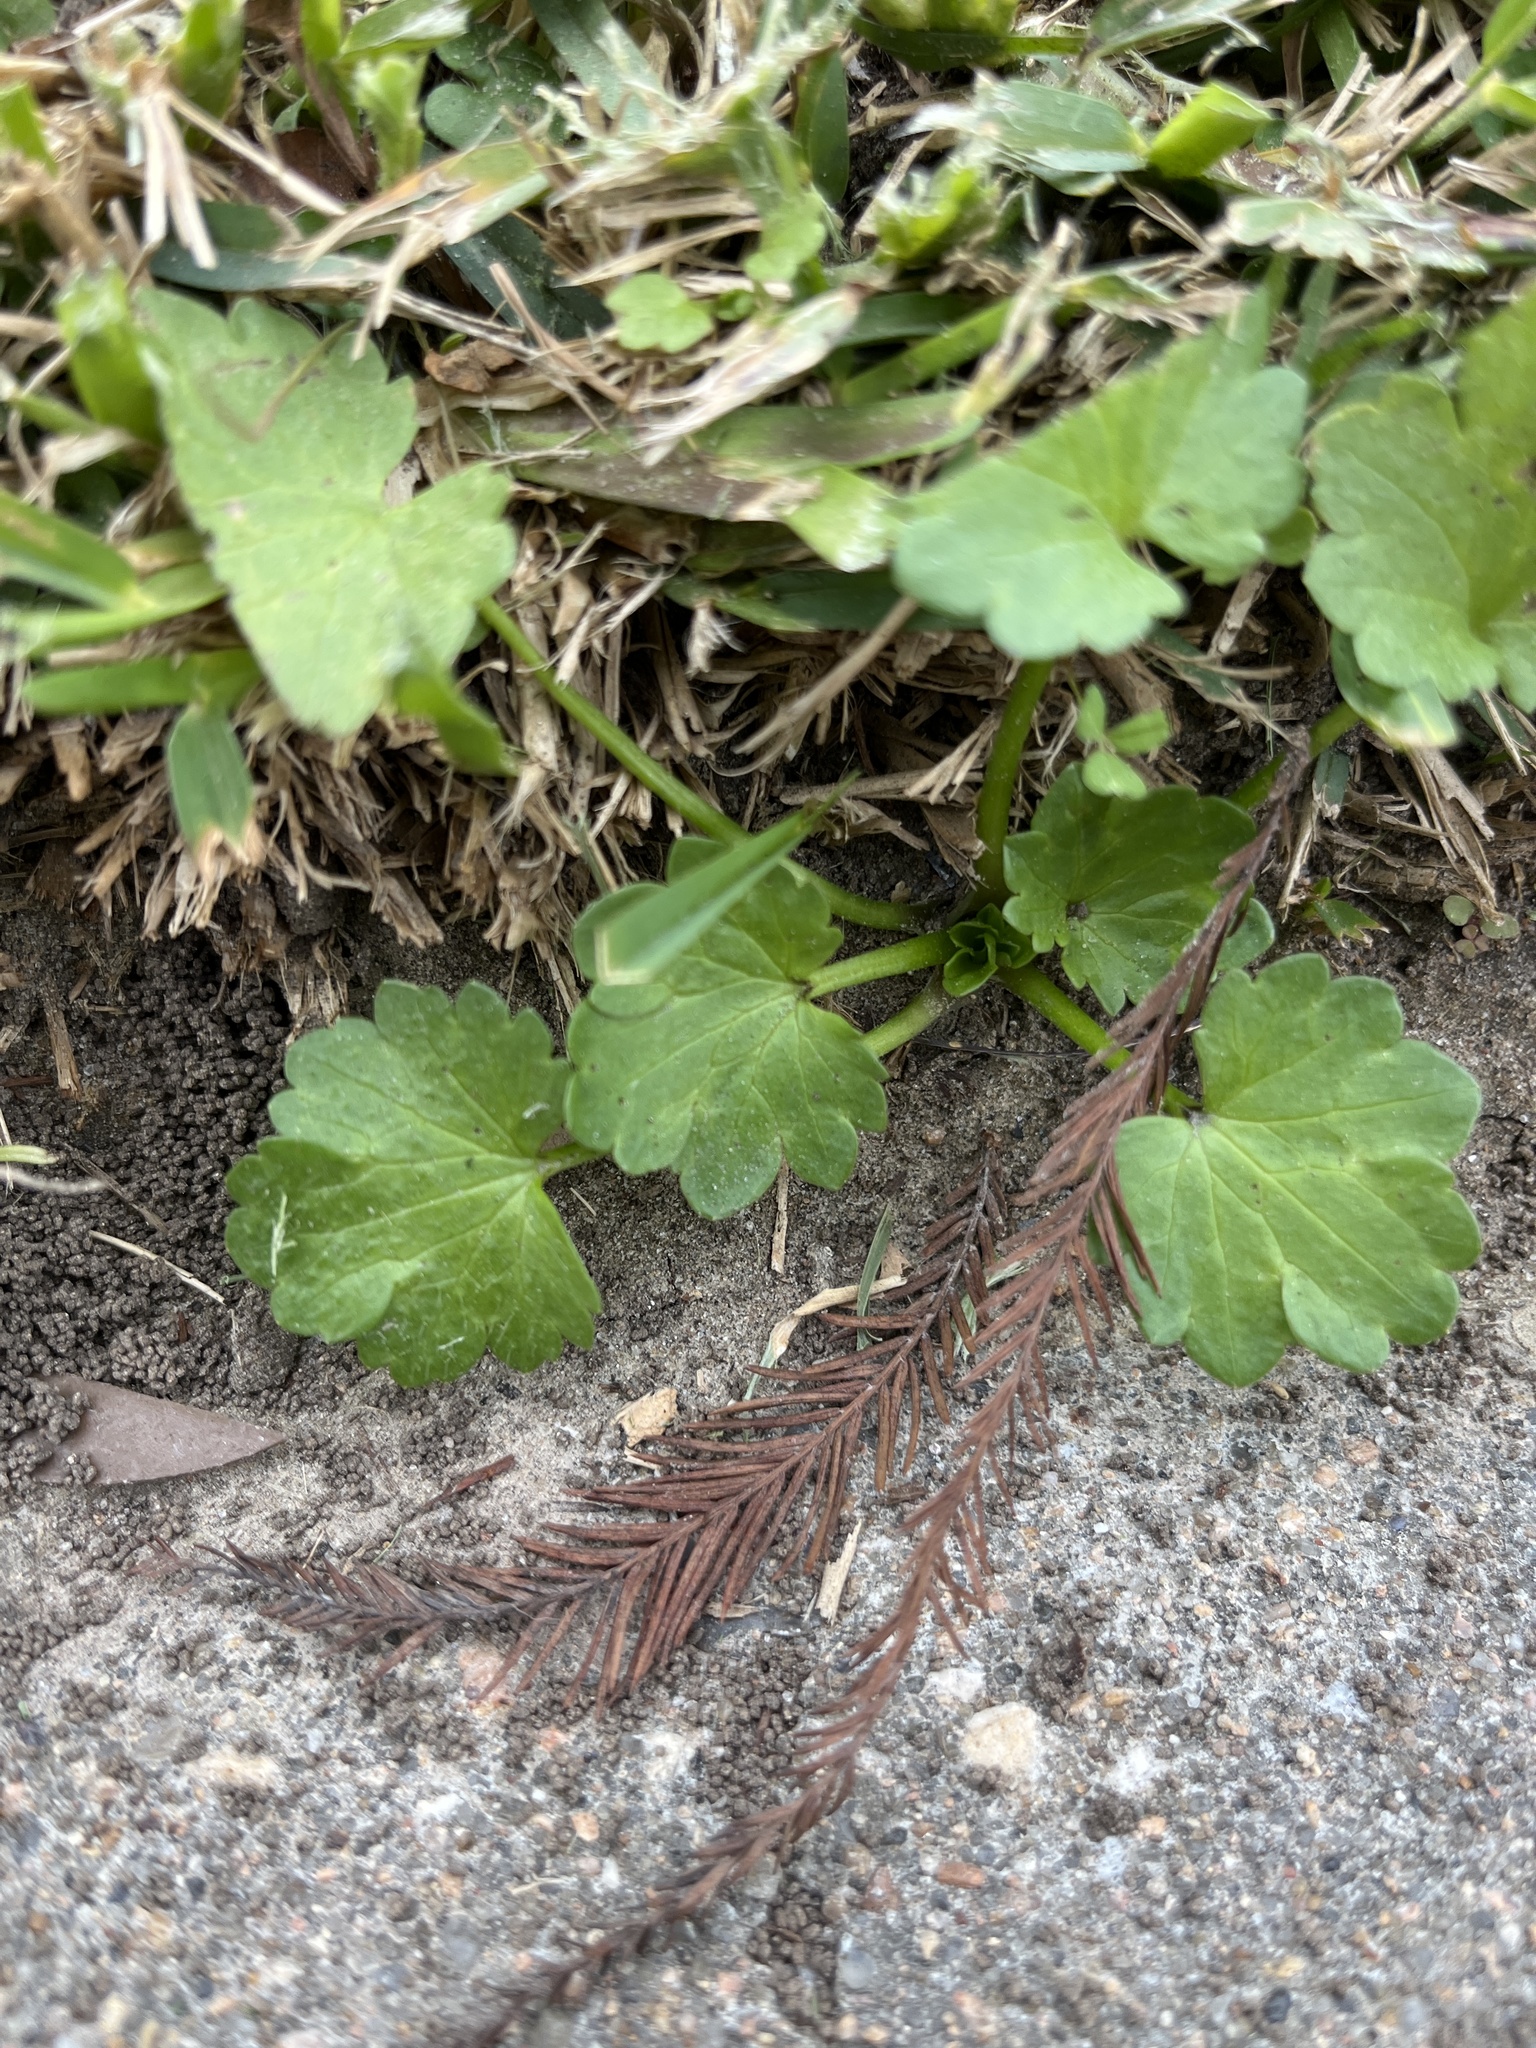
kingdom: Plantae
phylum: Tracheophyta
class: Magnoliopsida
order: Apiales
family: Apiaceae
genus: Bowlesia
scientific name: Bowlesia incana
